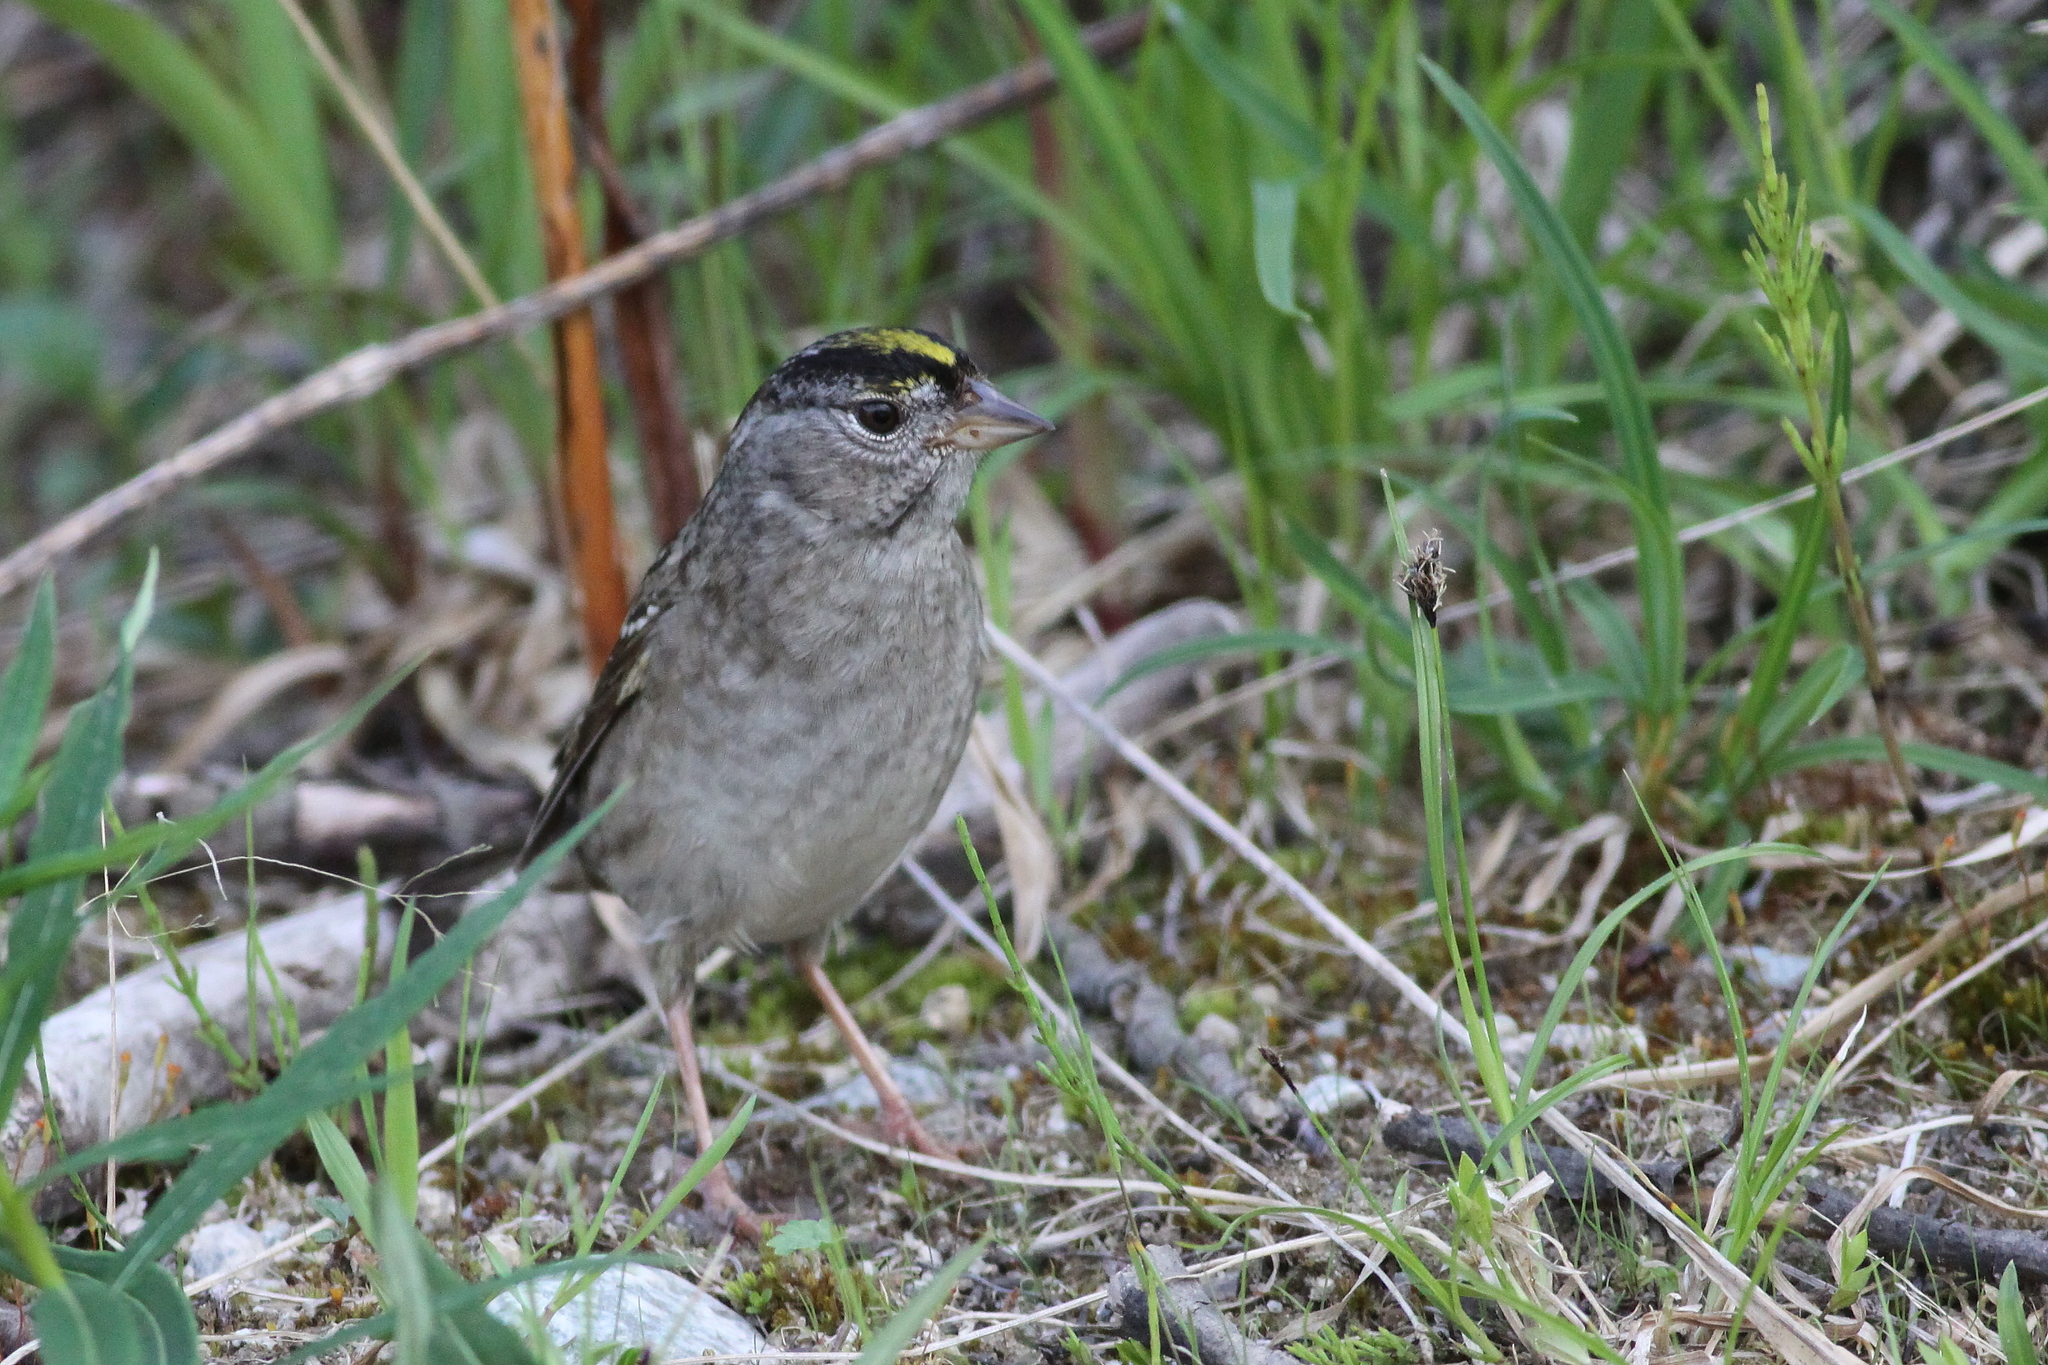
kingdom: Animalia
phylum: Chordata
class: Aves
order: Passeriformes
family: Passerellidae
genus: Zonotrichia
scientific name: Zonotrichia atricapilla
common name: Golden-crowned sparrow
